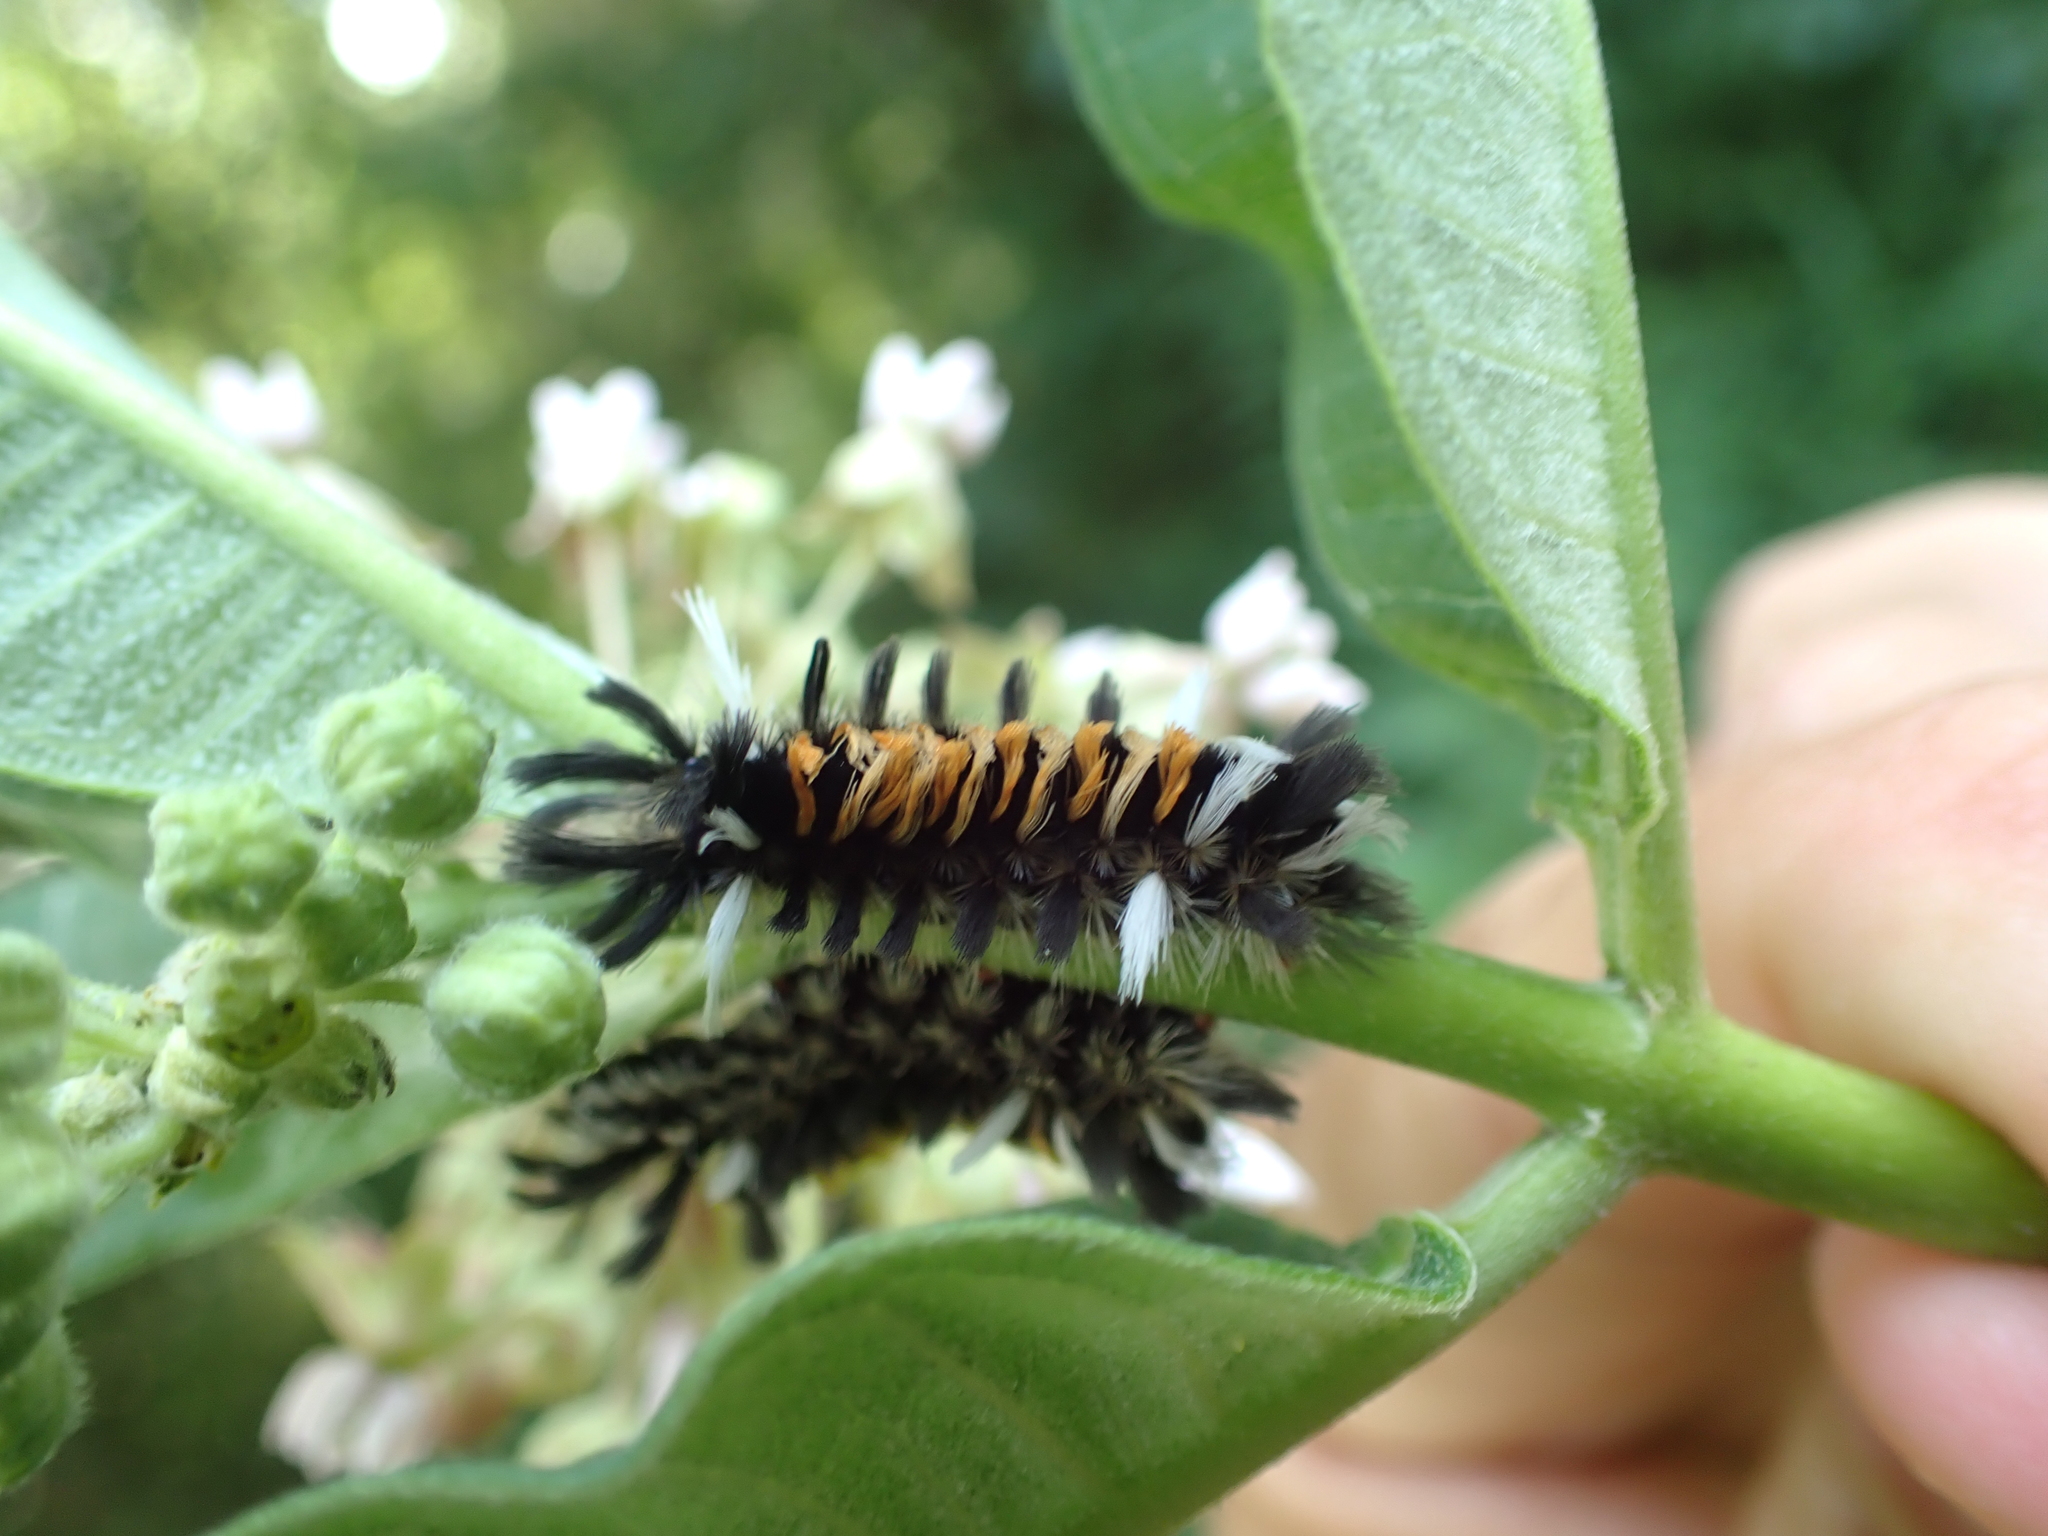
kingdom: Animalia
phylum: Arthropoda
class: Insecta
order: Lepidoptera
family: Erebidae
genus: Euchaetes
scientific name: Euchaetes egle
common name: Milkweed tussock moth
